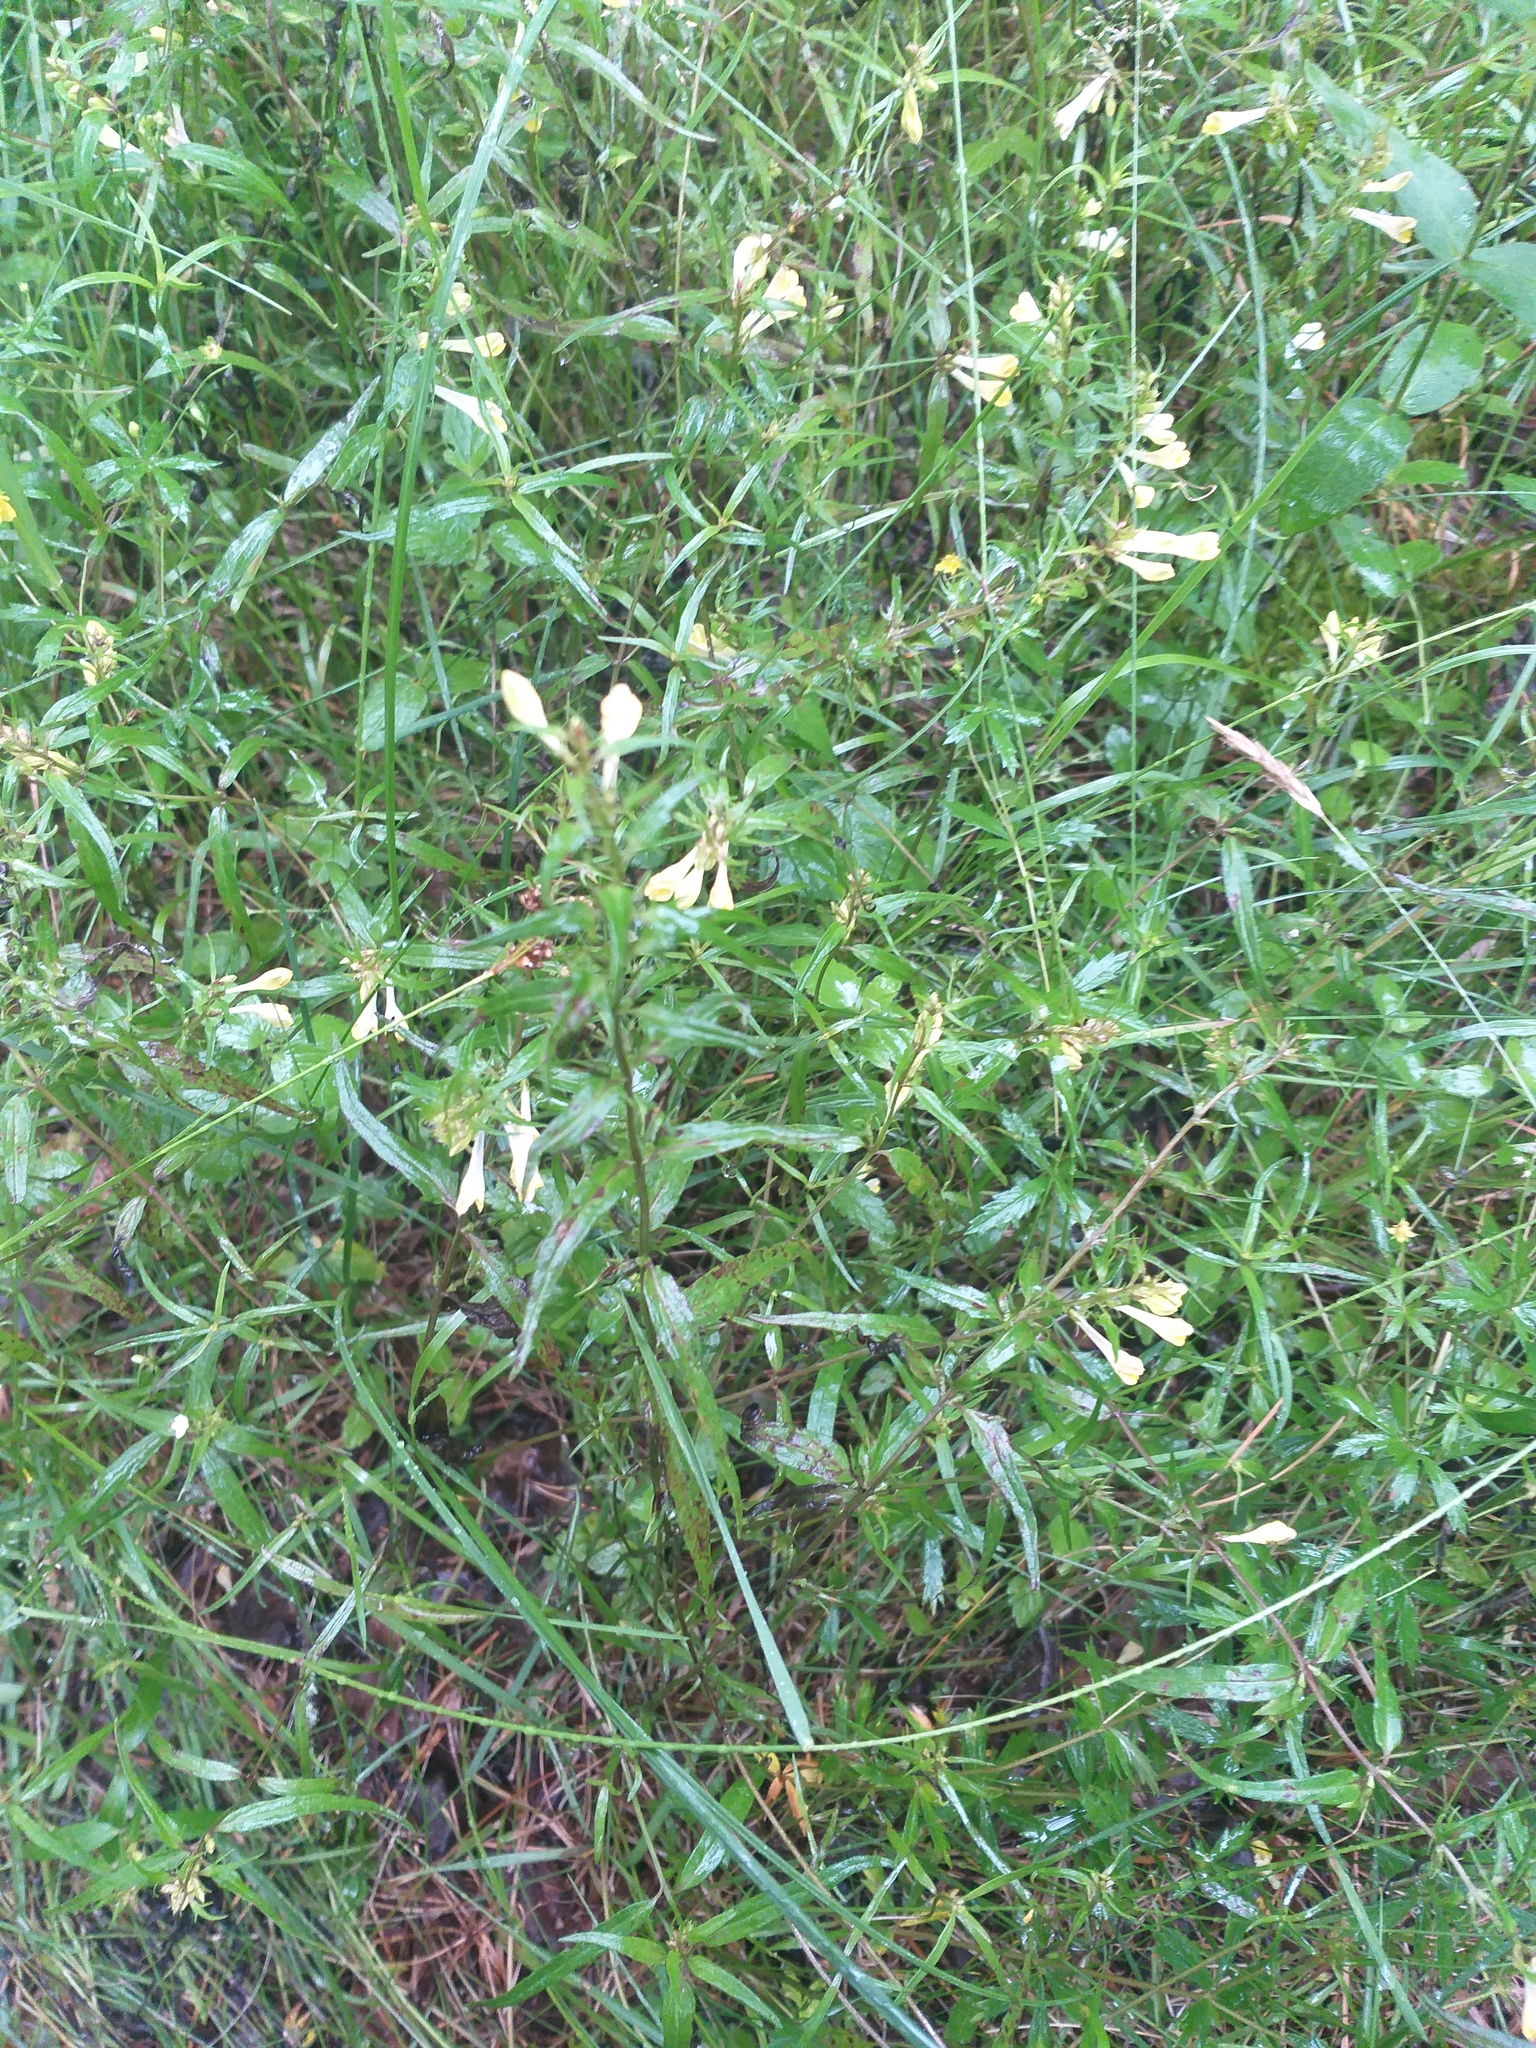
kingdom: Plantae
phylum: Tracheophyta
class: Magnoliopsida
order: Lamiales
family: Orobanchaceae
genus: Melampyrum
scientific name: Melampyrum pratense
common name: Common cow-wheat
